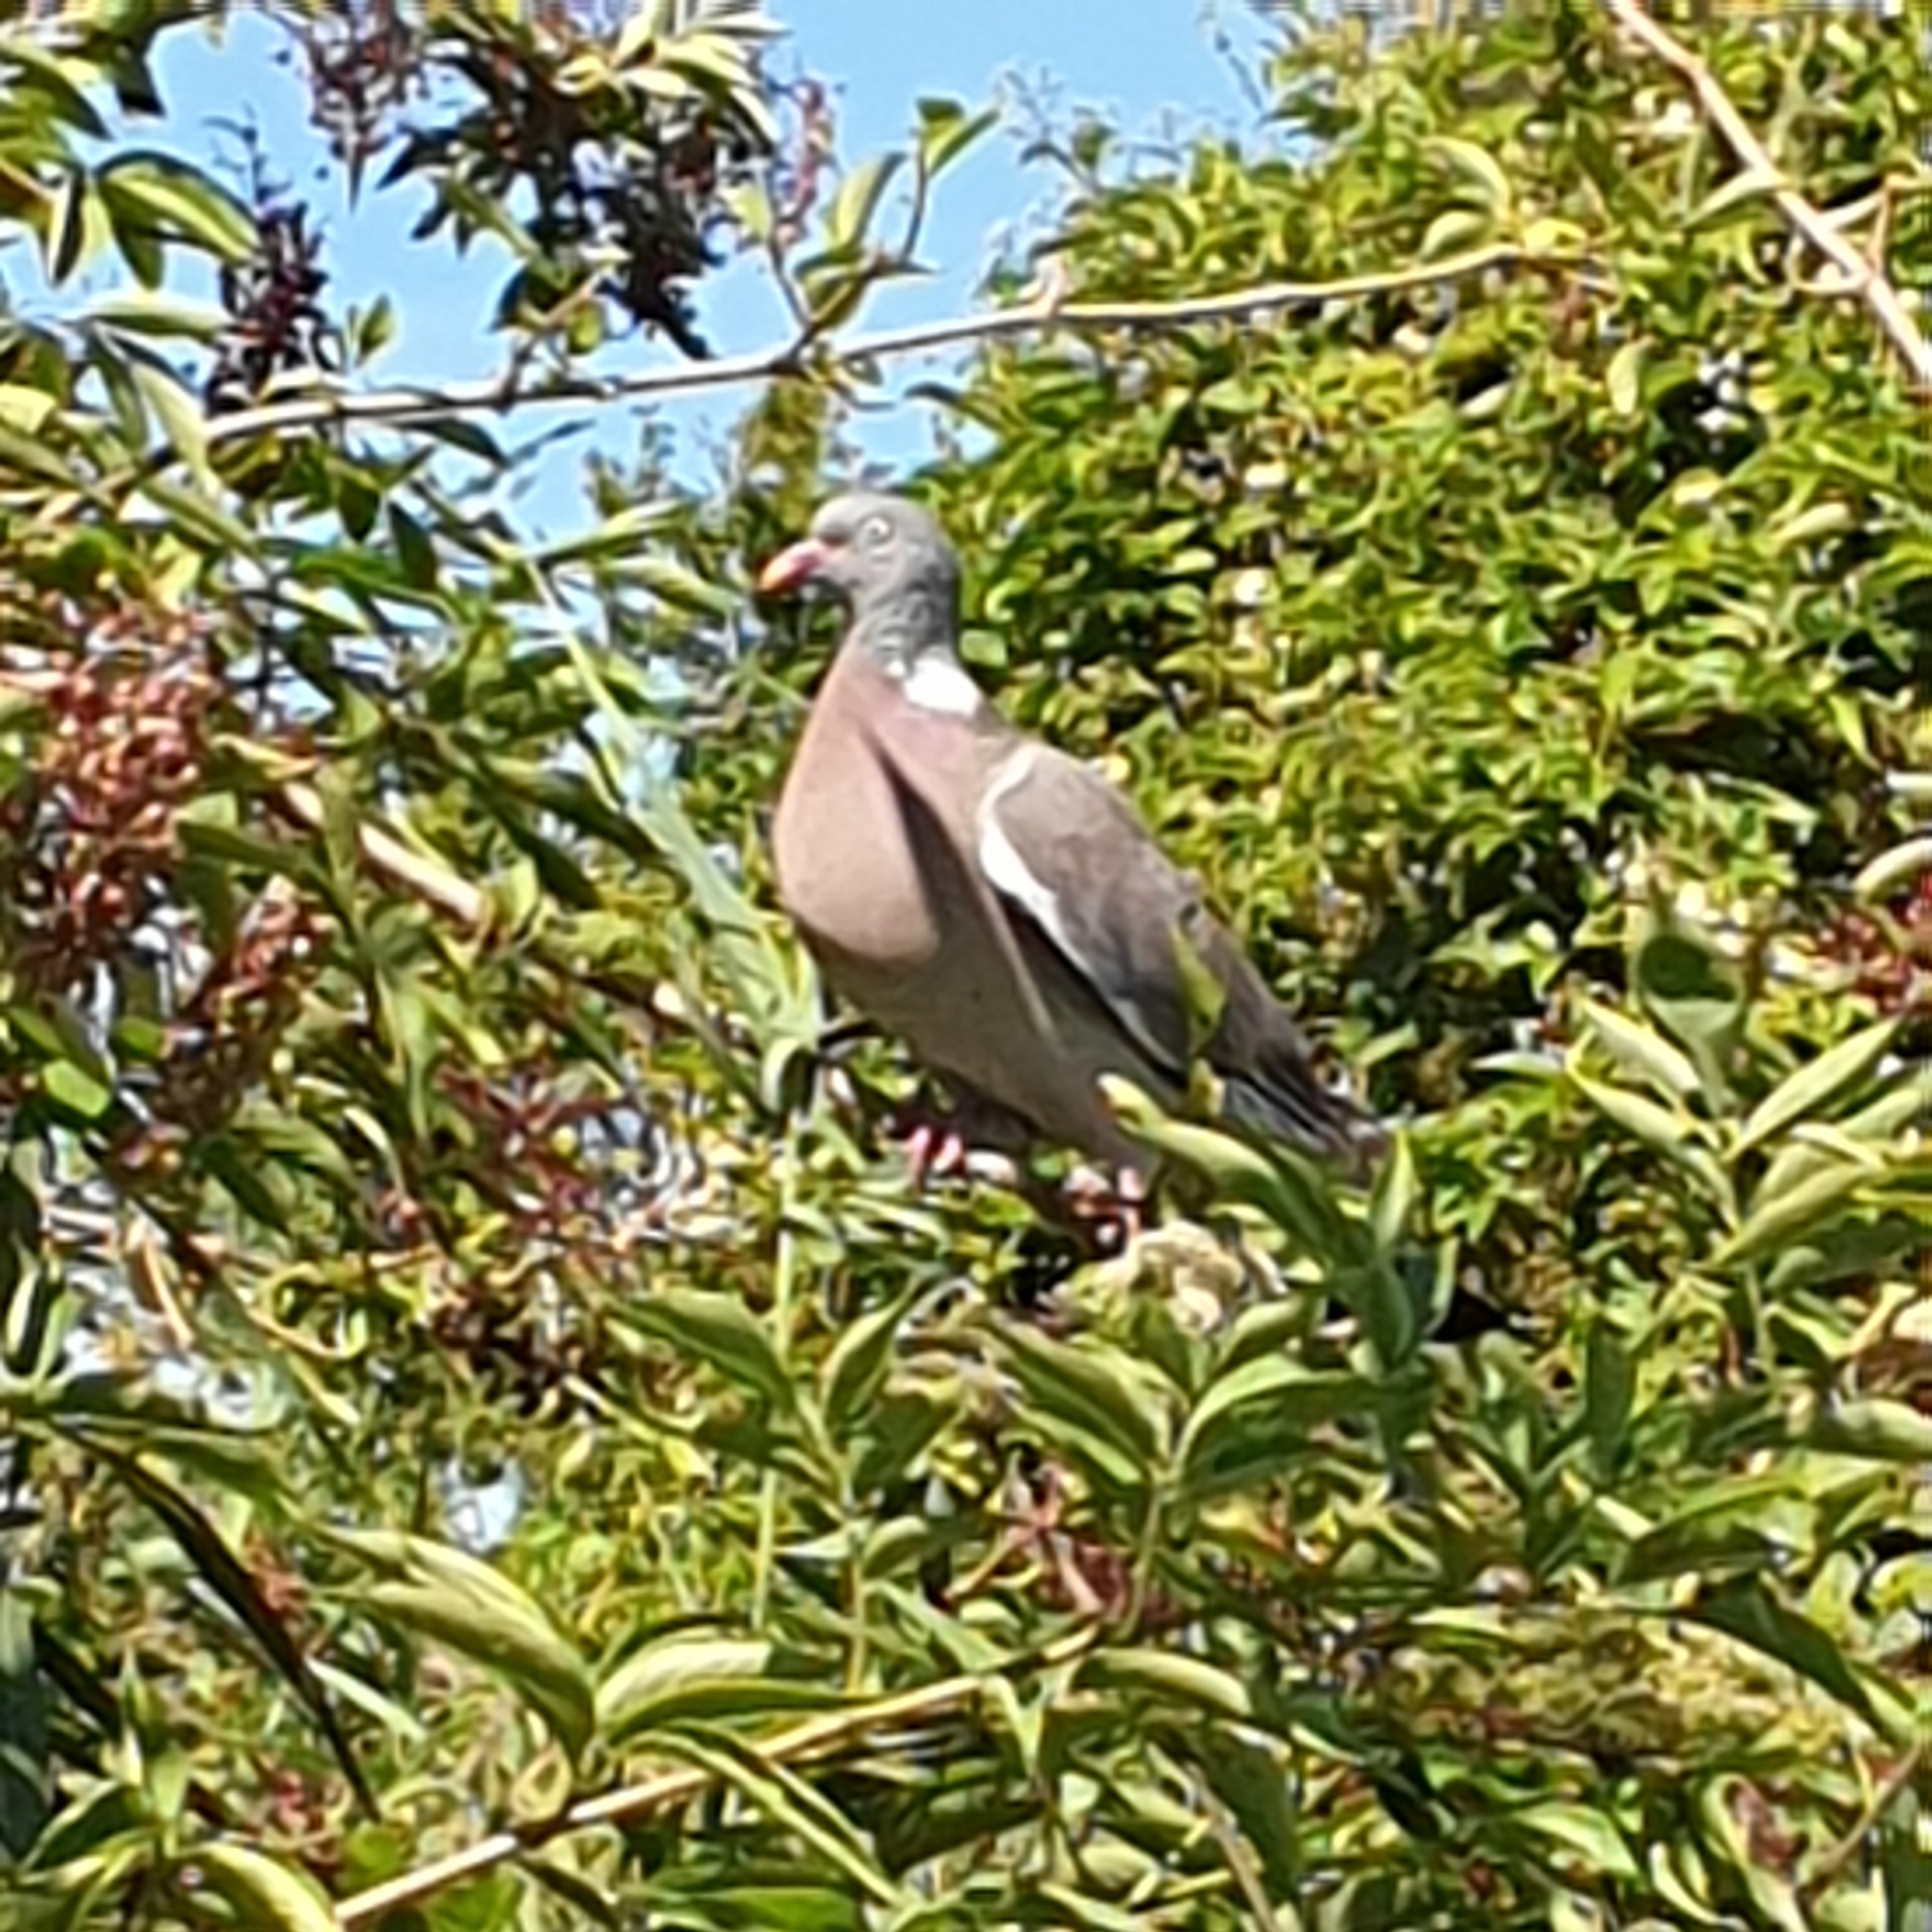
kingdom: Animalia
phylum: Chordata
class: Aves
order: Columbiformes
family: Columbidae
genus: Columba
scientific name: Columba palumbus
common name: Common wood pigeon
